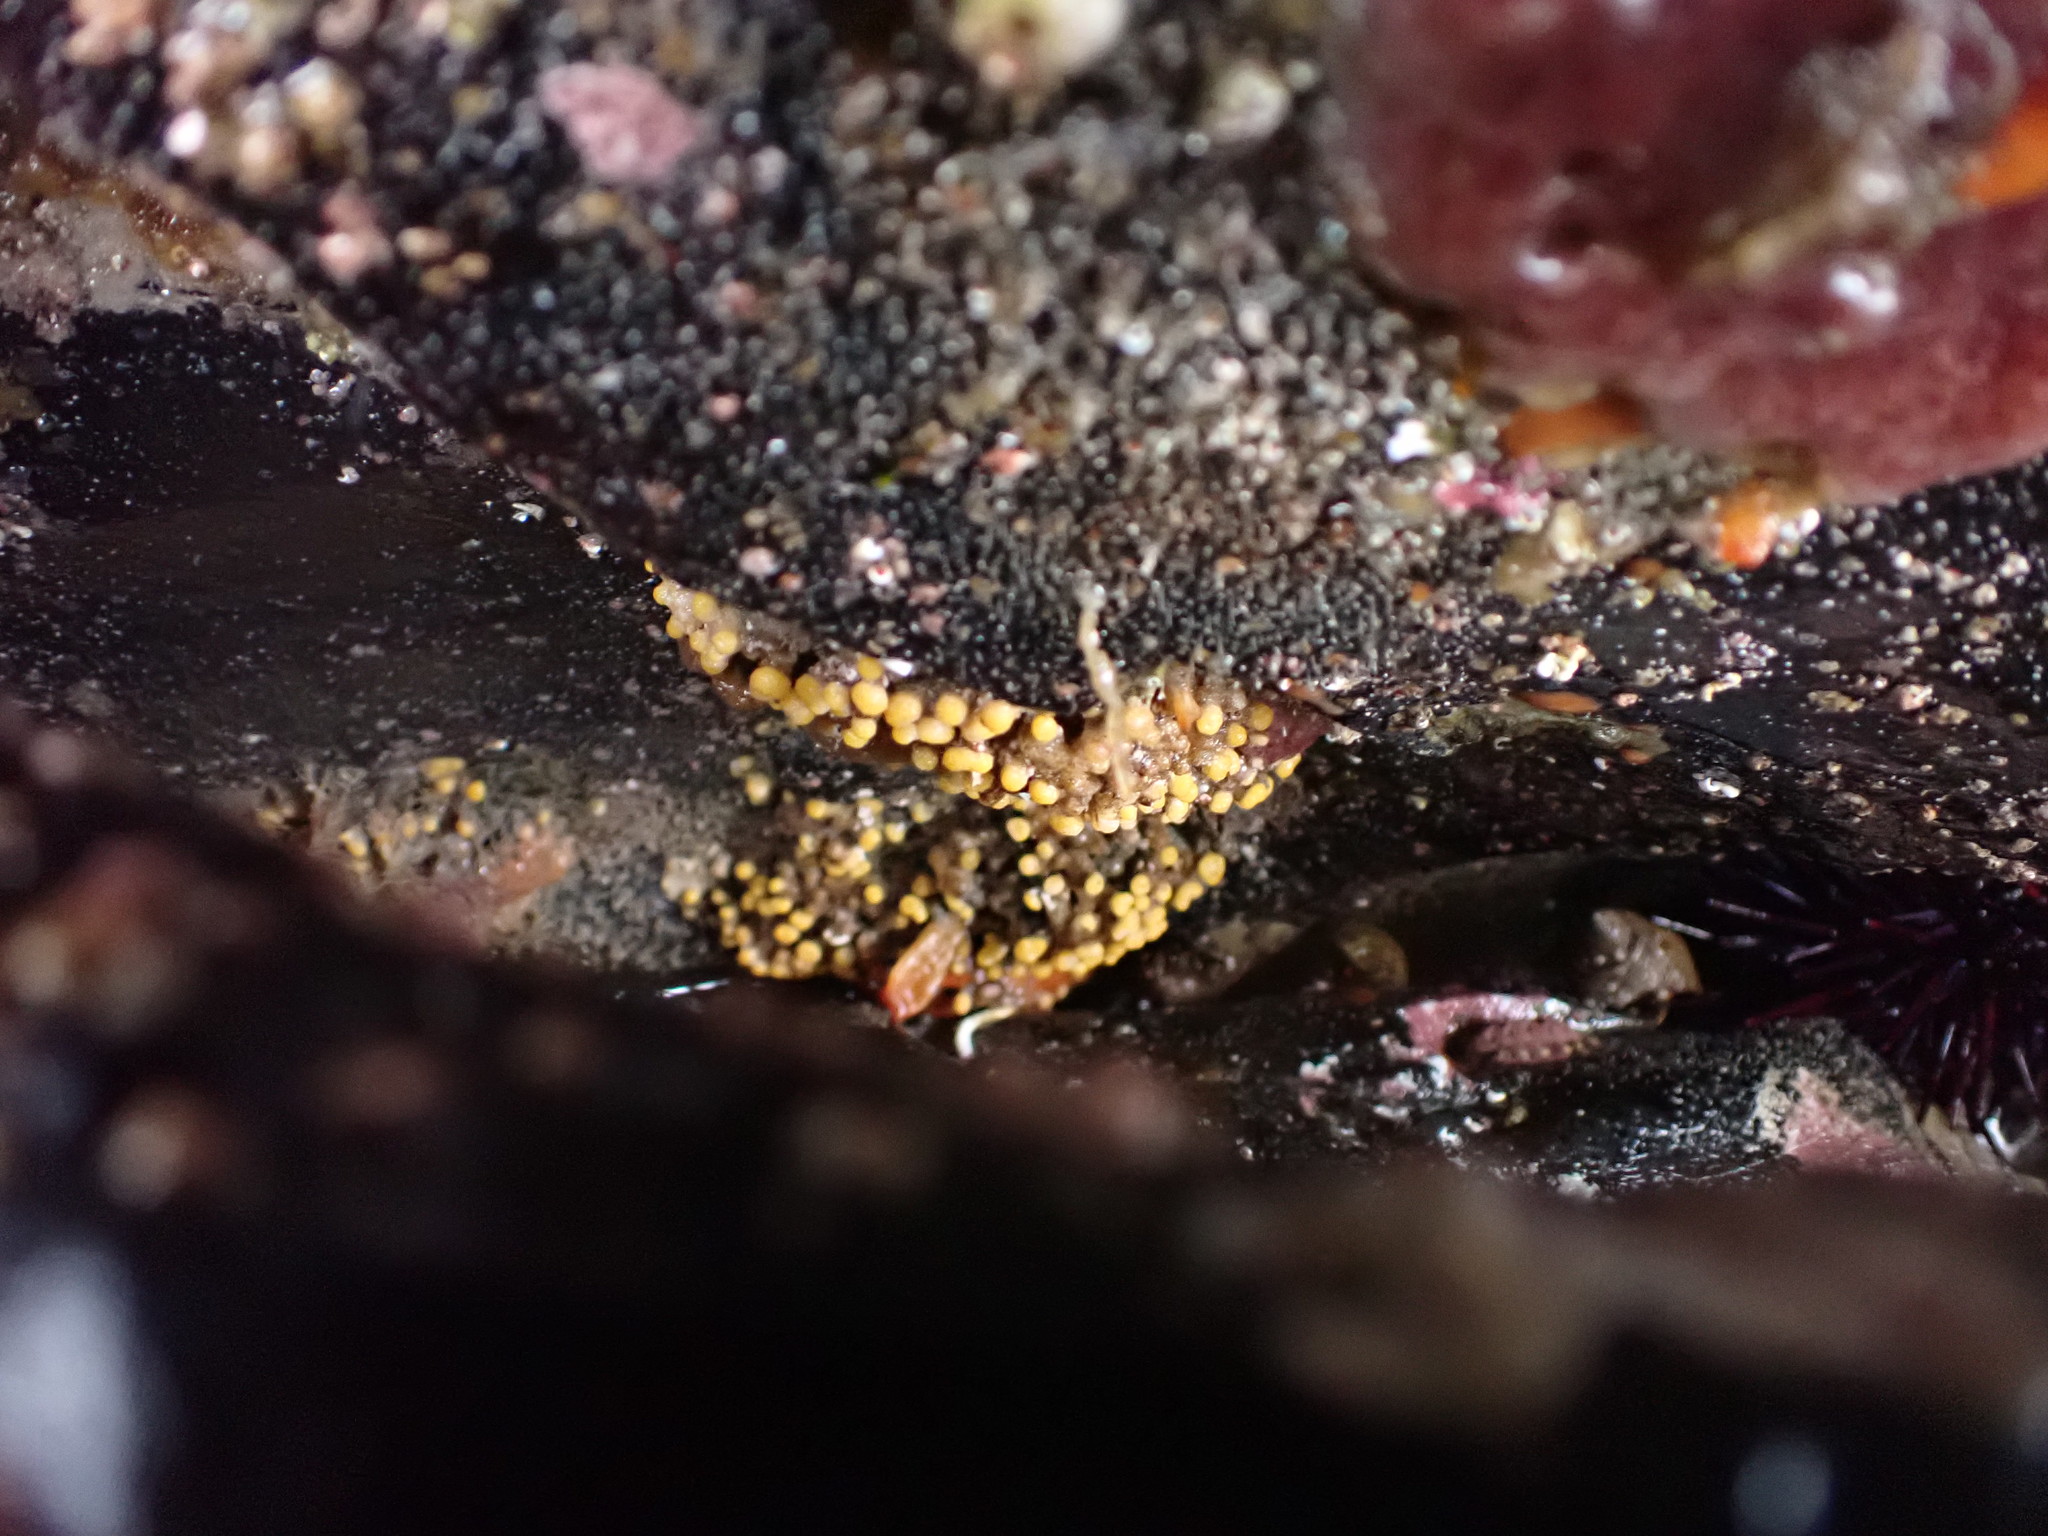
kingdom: Animalia
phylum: Bryozoa
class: Stenolaemata
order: Cyclostomatida
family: Heteroporidae
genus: Heteropora
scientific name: Heteropora pacifica
